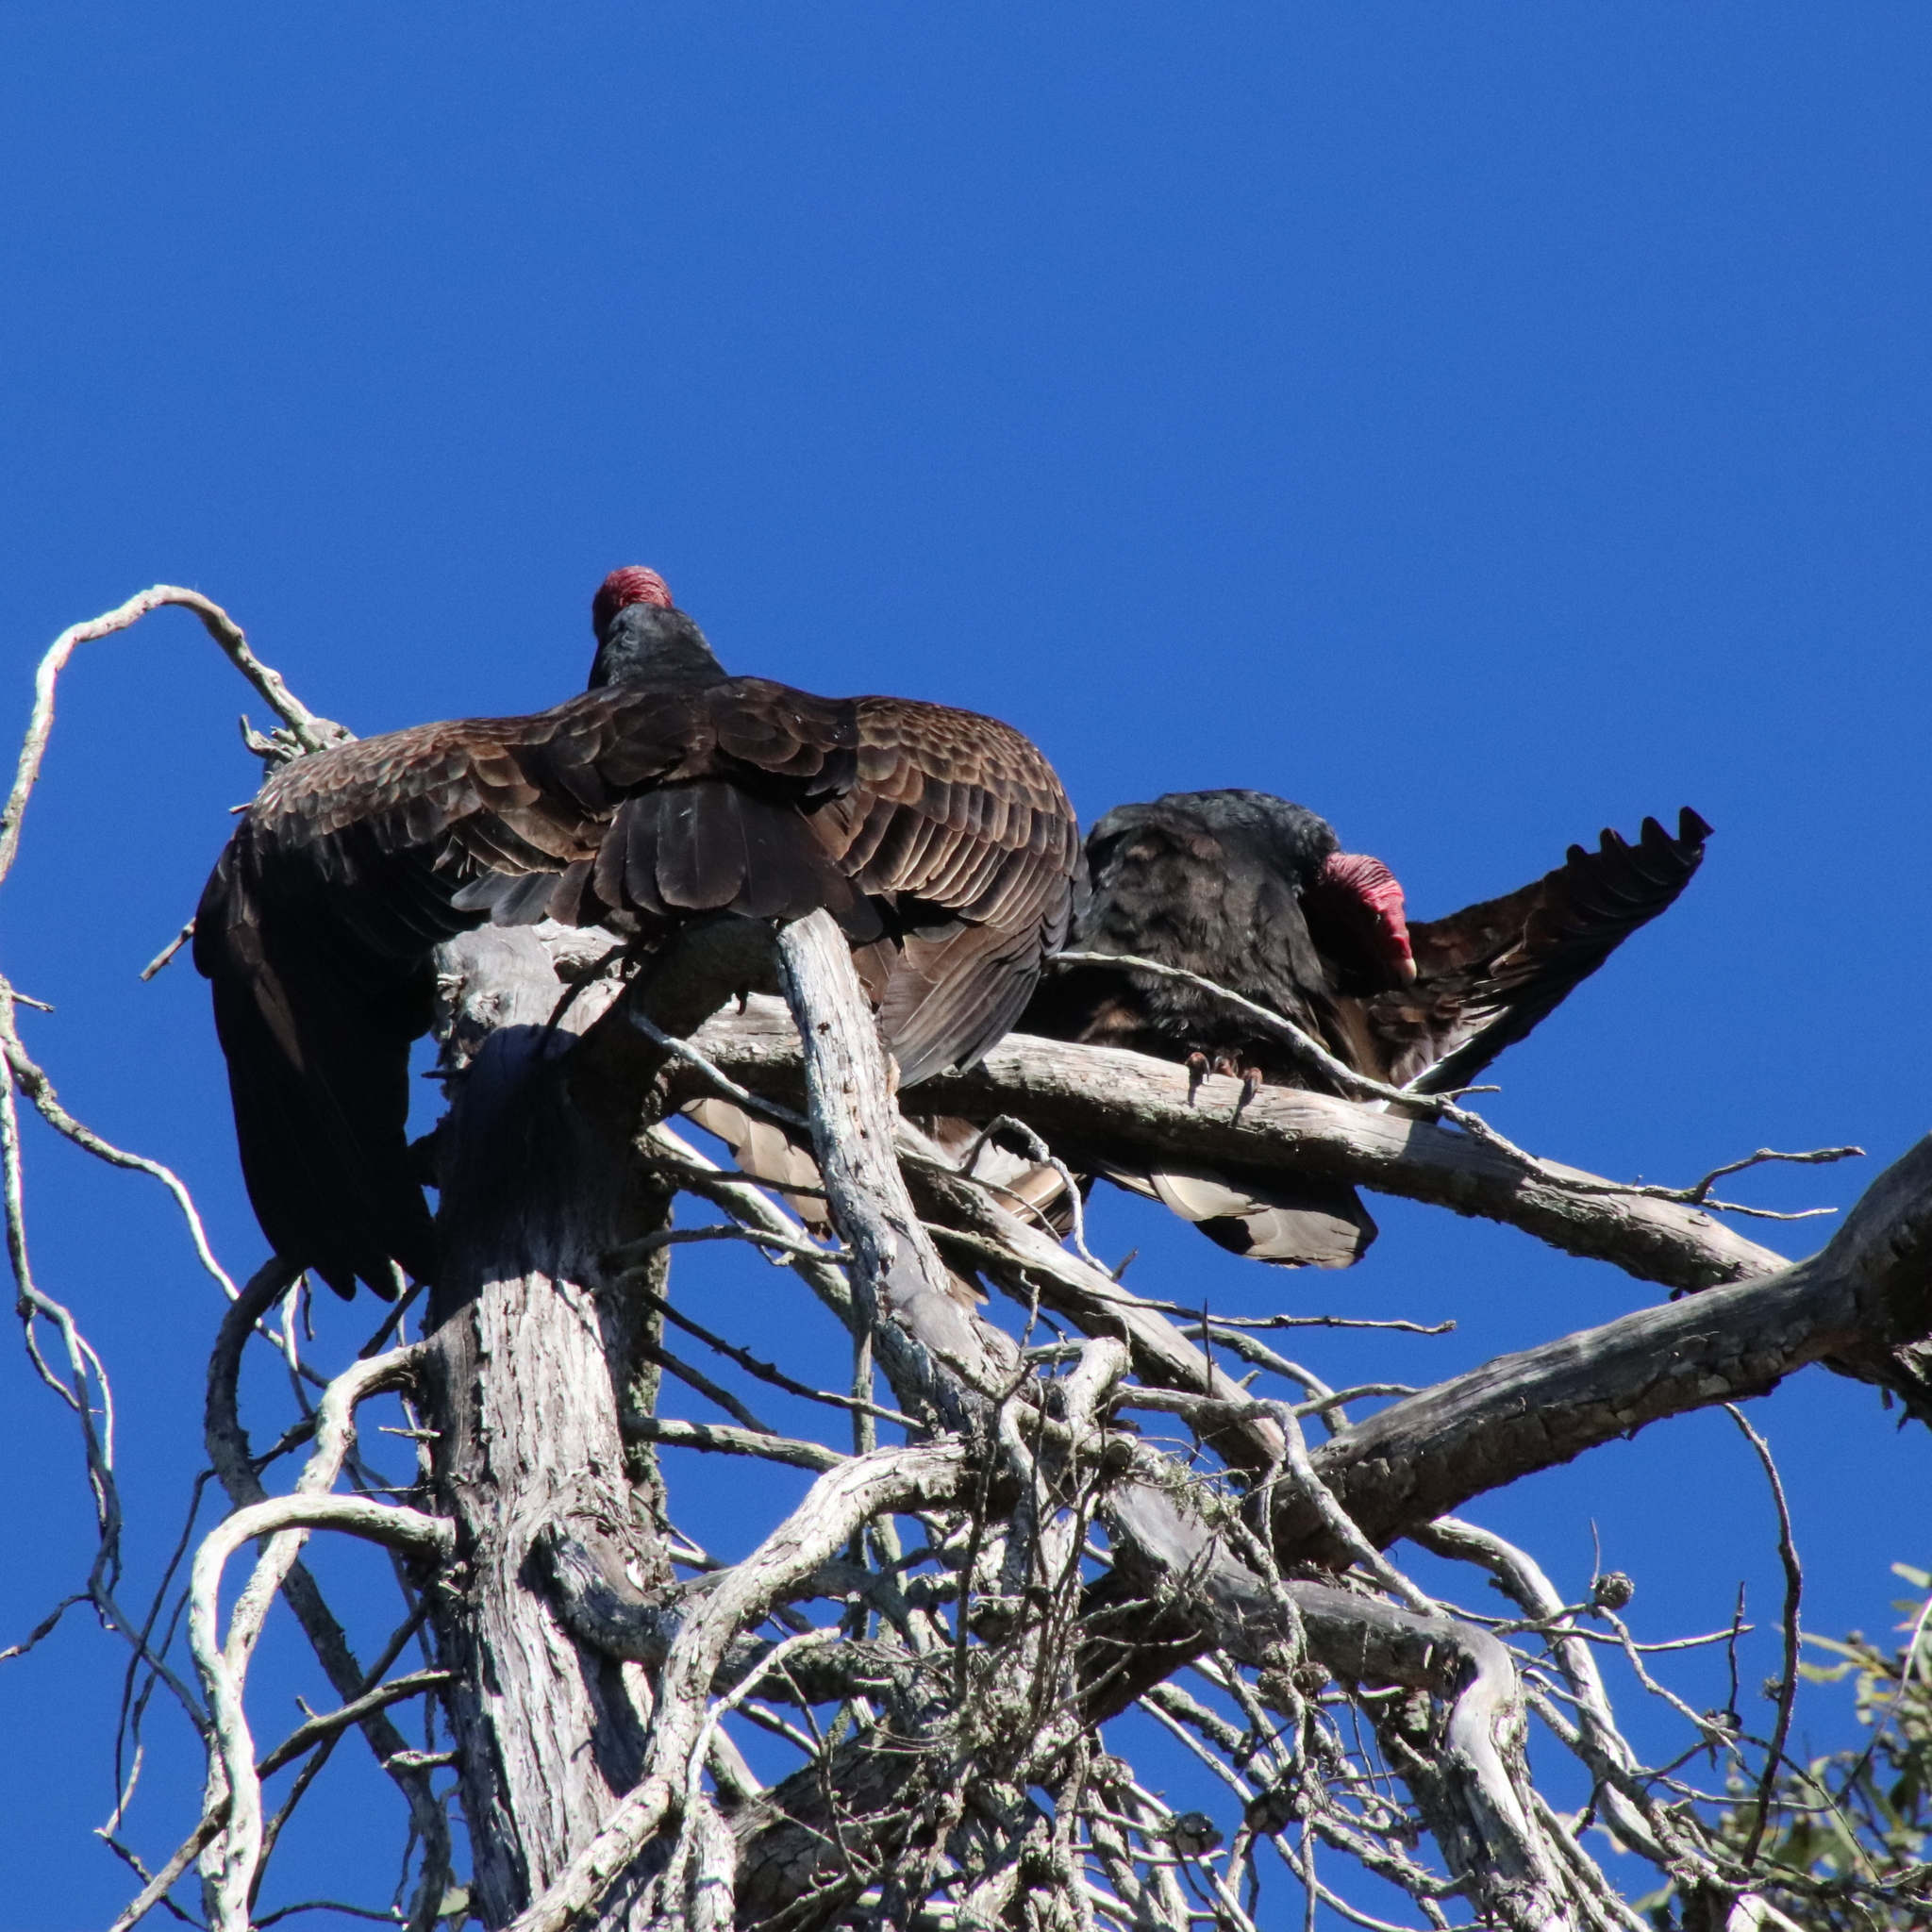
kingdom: Animalia
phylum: Chordata
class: Aves
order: Accipitriformes
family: Cathartidae
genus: Cathartes
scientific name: Cathartes aura
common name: Turkey vulture
